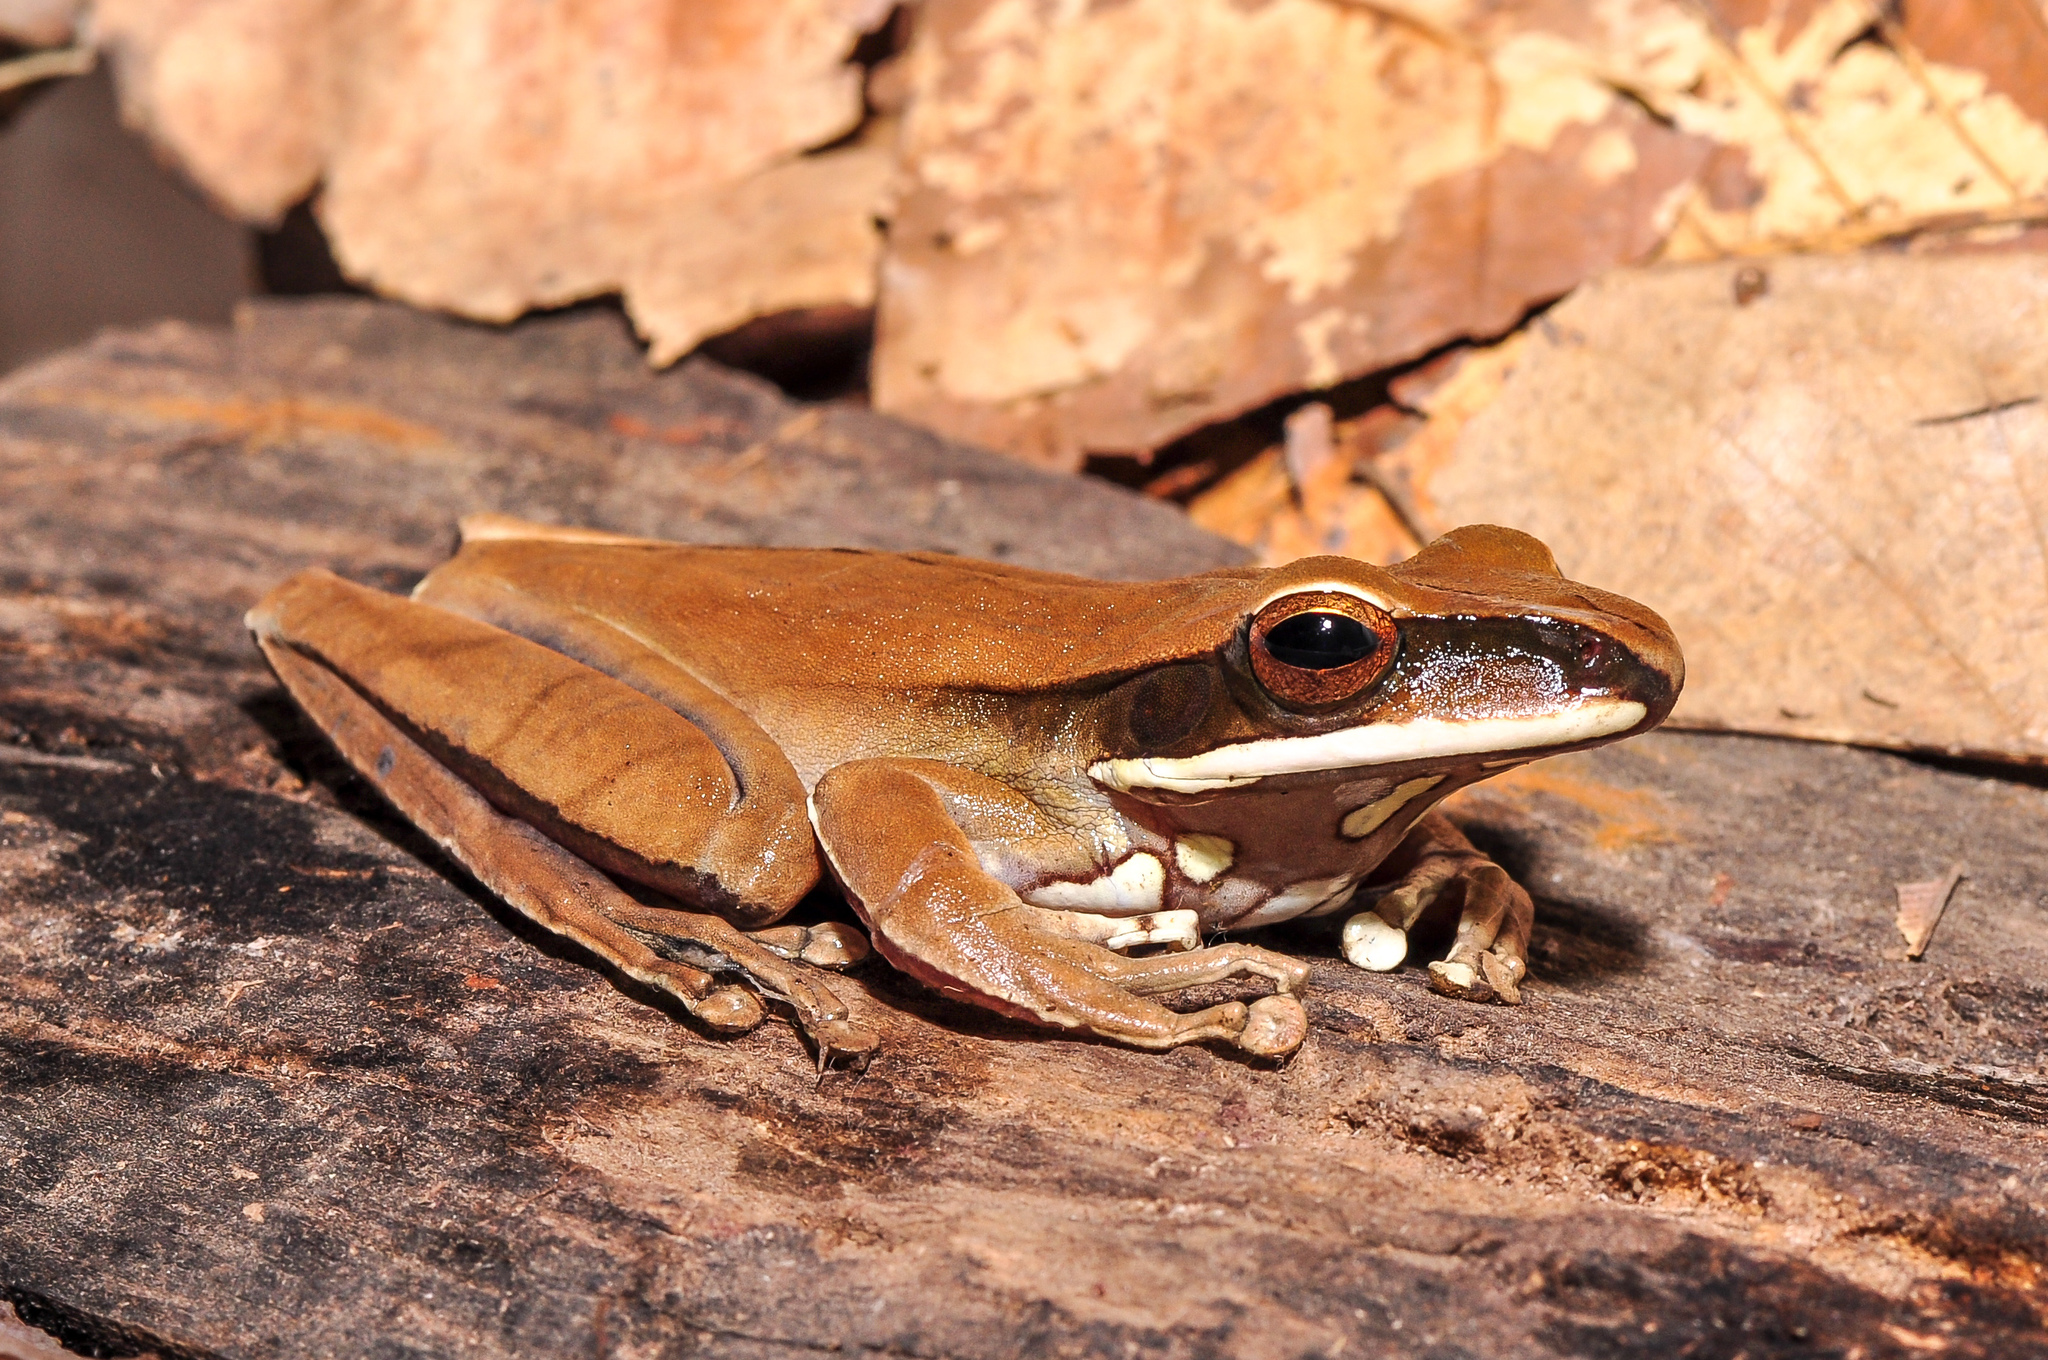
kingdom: Animalia
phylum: Chordata
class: Amphibia
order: Anura
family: Hylidae
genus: Boana
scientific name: Boana lanciformis
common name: Rana lanceolada commún
